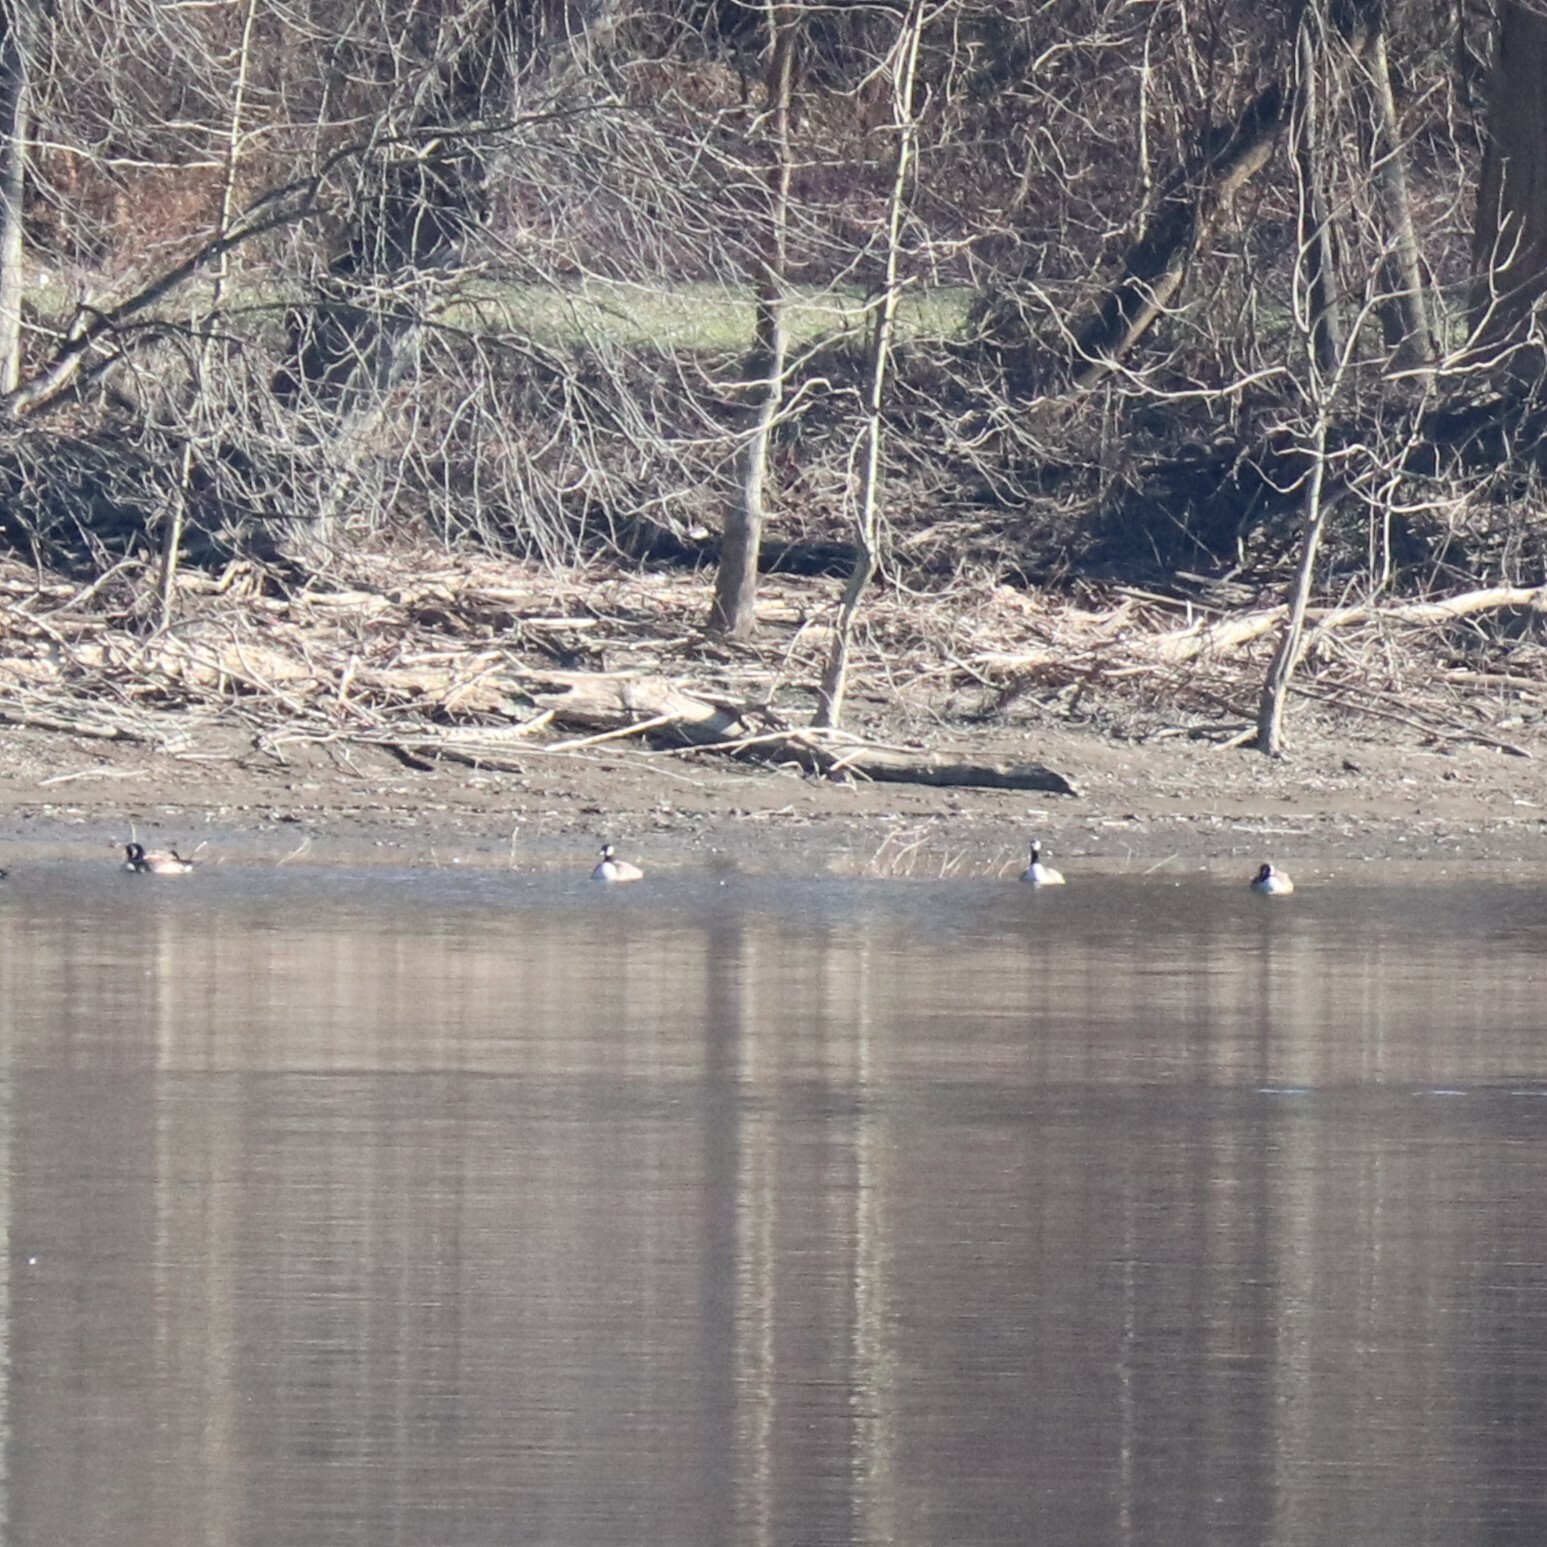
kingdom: Animalia
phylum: Chordata
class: Aves
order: Anseriformes
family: Anatidae
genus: Branta
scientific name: Branta canadensis
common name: Canada goose
